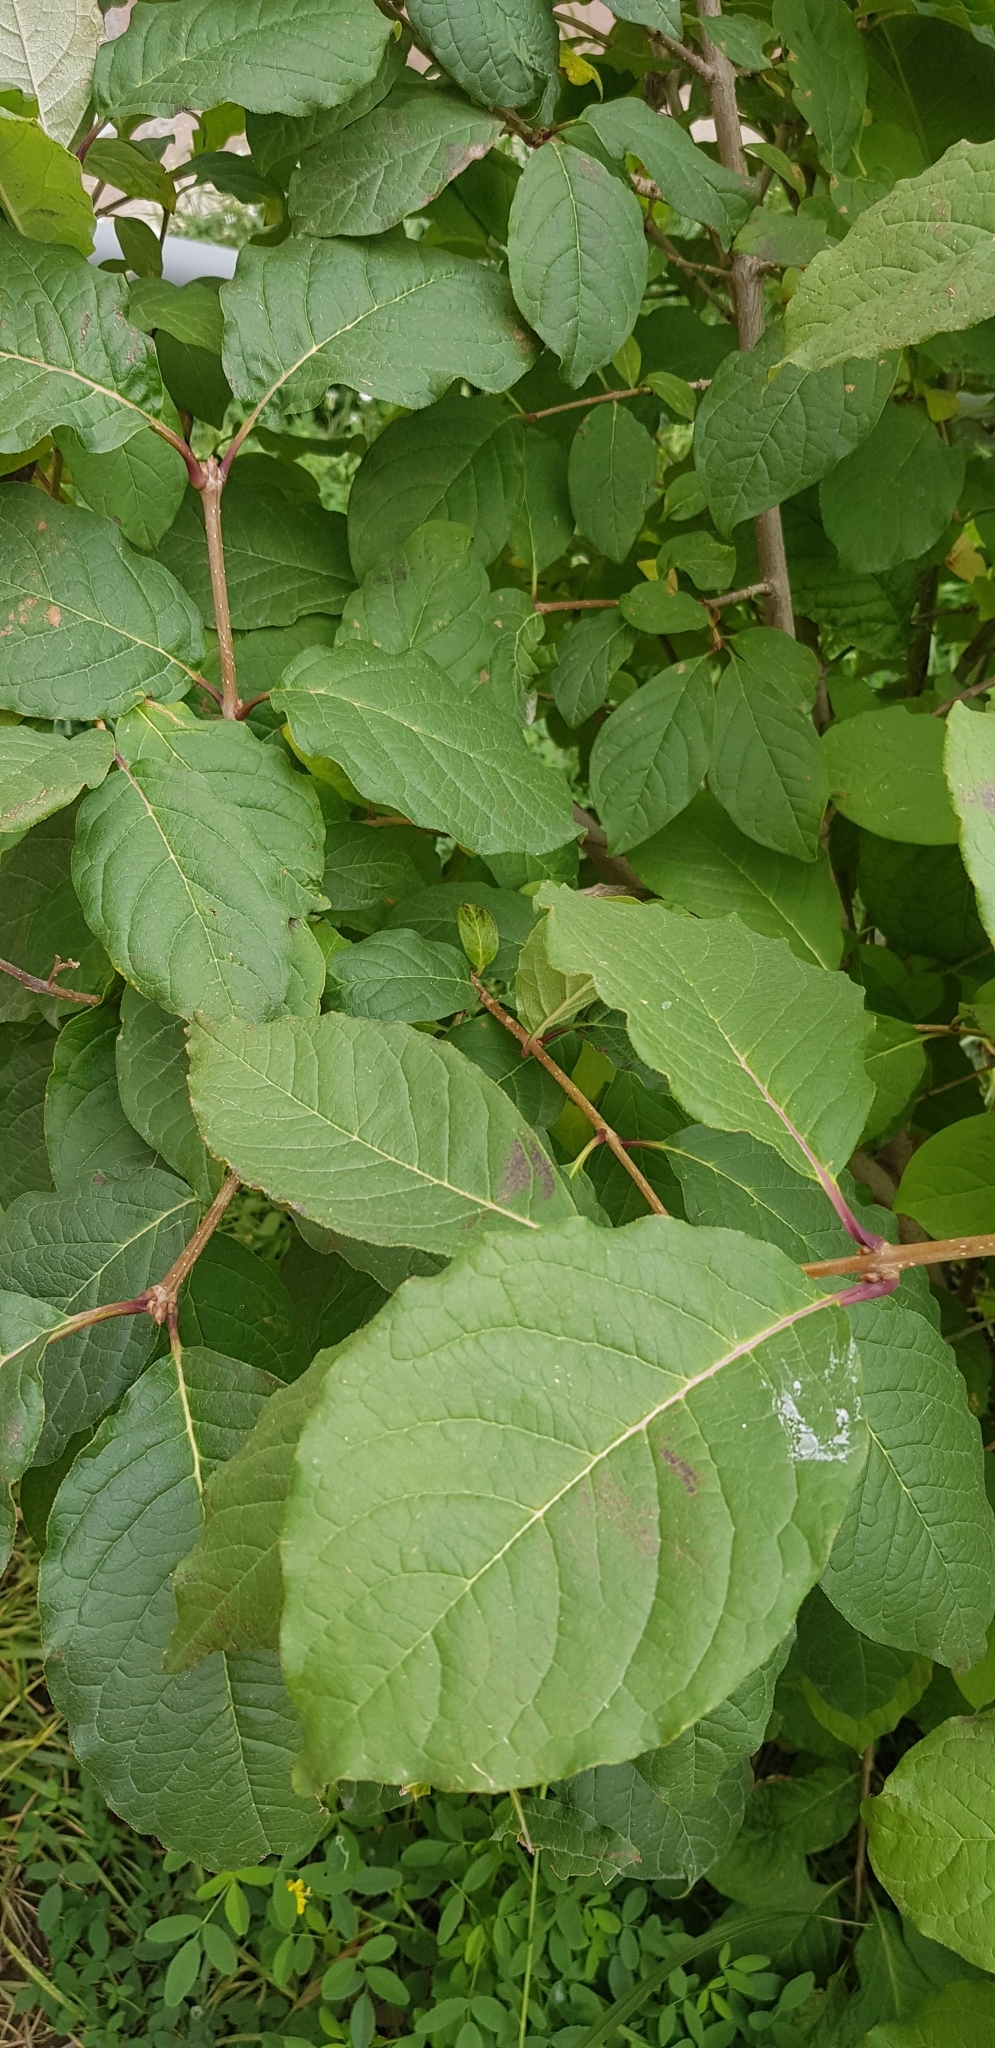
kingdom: Plantae
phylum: Tracheophyta
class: Magnoliopsida
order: Rosales
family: Rosaceae
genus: Prunus
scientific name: Prunus padus
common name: Bird cherry
